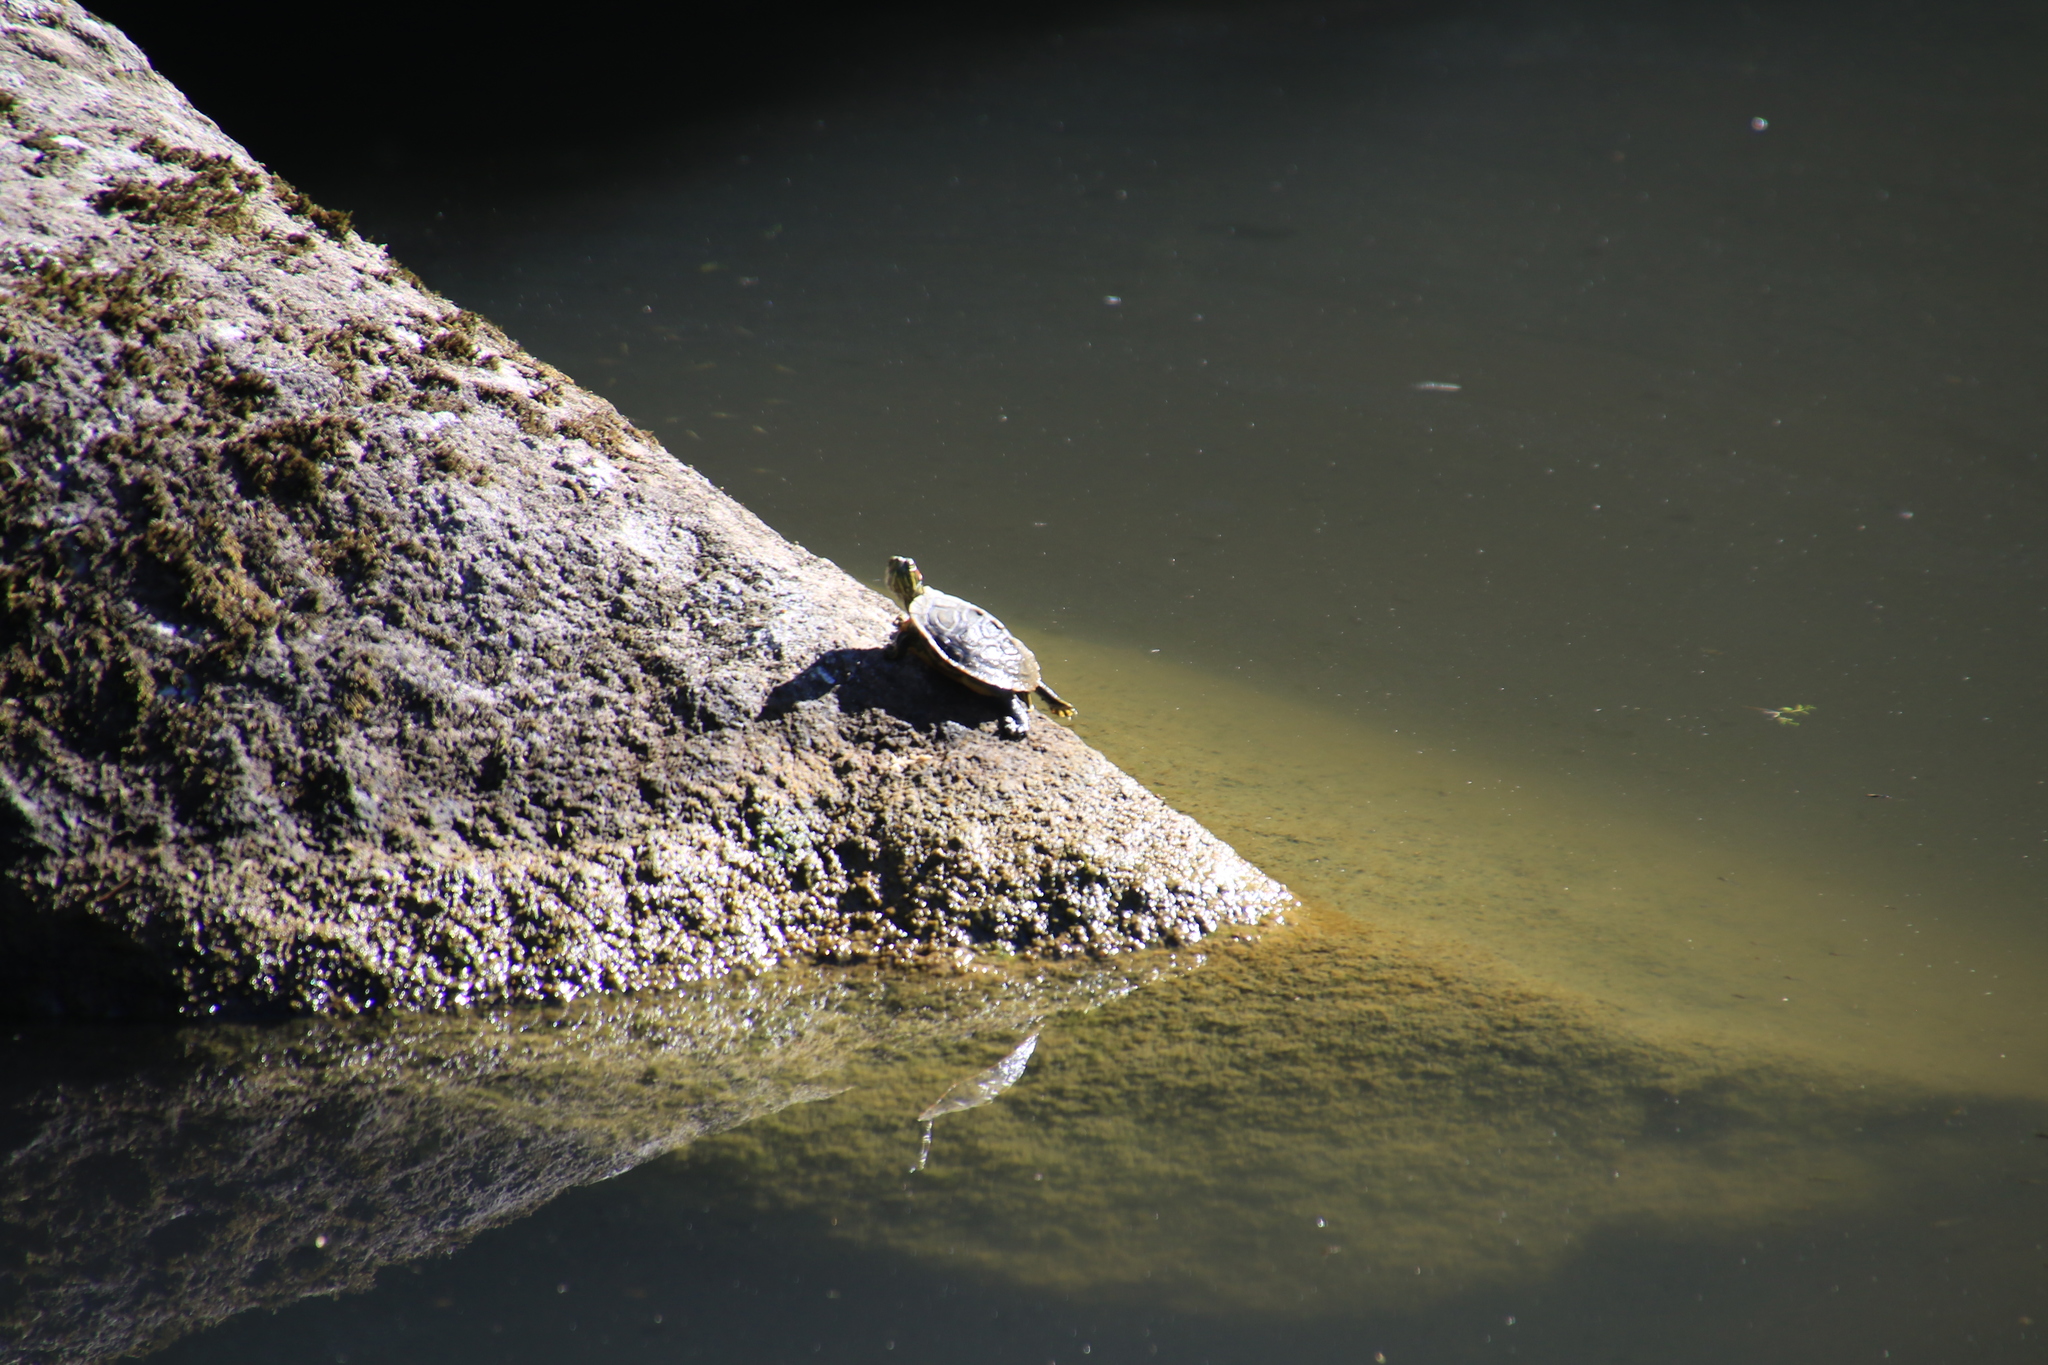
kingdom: Animalia
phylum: Chordata
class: Testudines
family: Emydidae
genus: Trachemys
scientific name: Trachemys scripta
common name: Slider
